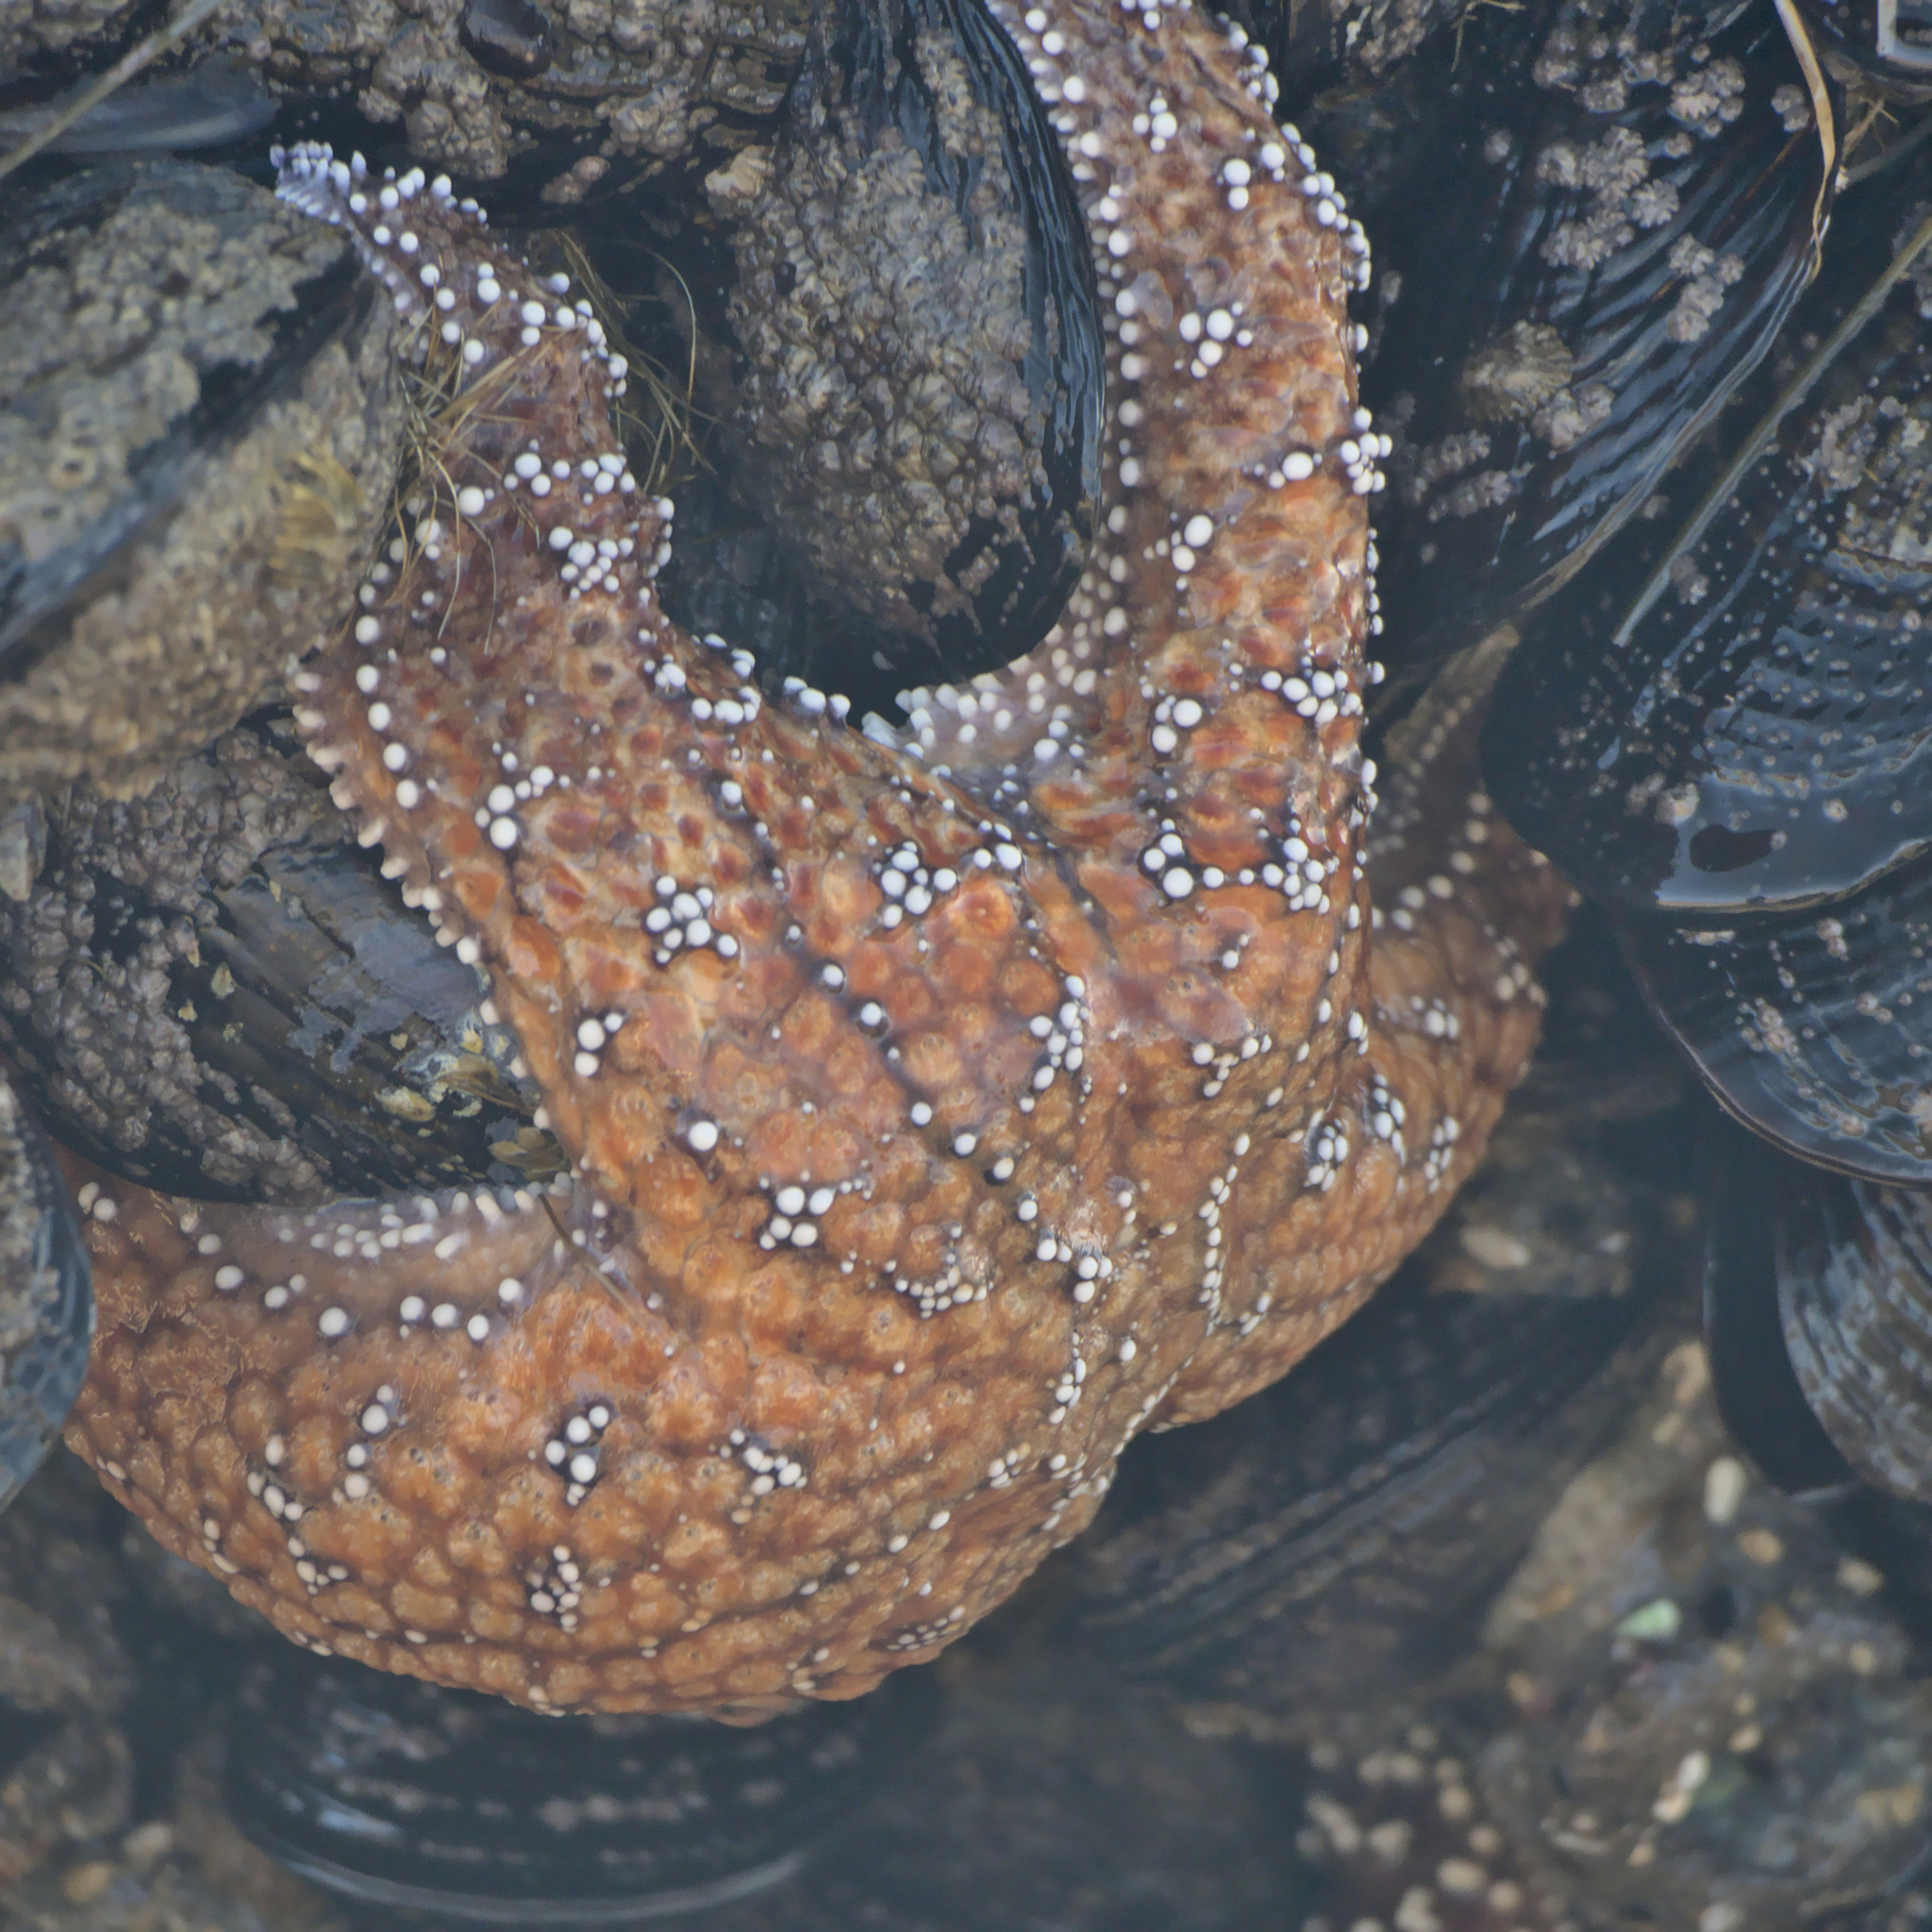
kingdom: Animalia
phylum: Echinodermata
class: Asteroidea
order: Forcipulatida
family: Asteriidae
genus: Pisaster
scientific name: Pisaster ochraceus
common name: Ochre stars
